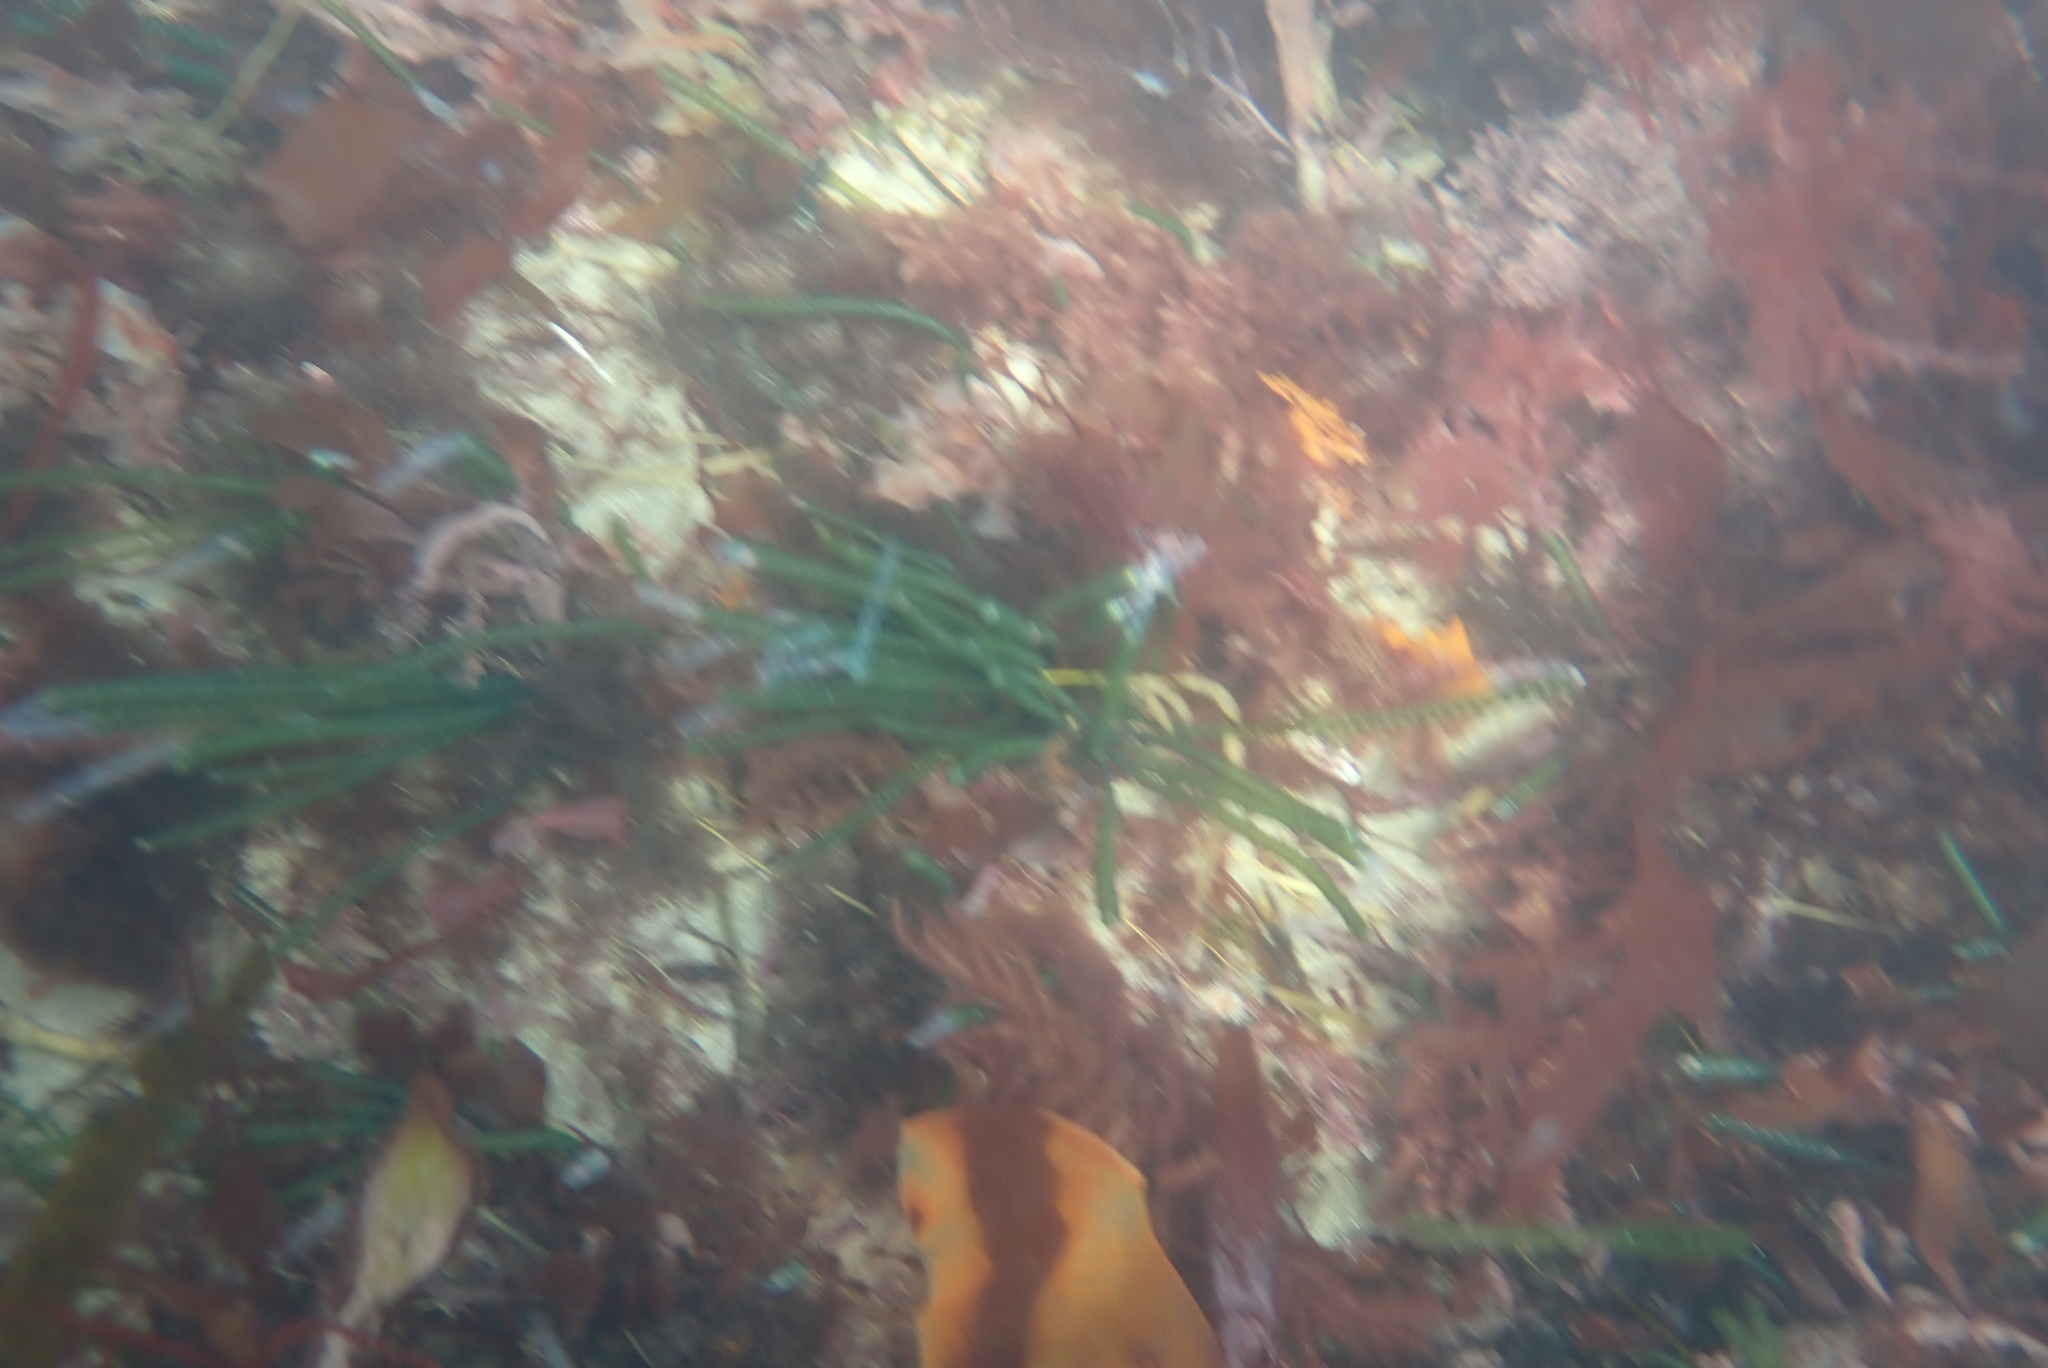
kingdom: Plantae
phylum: Chlorophyta
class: Ulvophyceae
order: Cladophorales
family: Cladophoraceae
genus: Chaetomorpha
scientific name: Chaetomorpha coliformis
